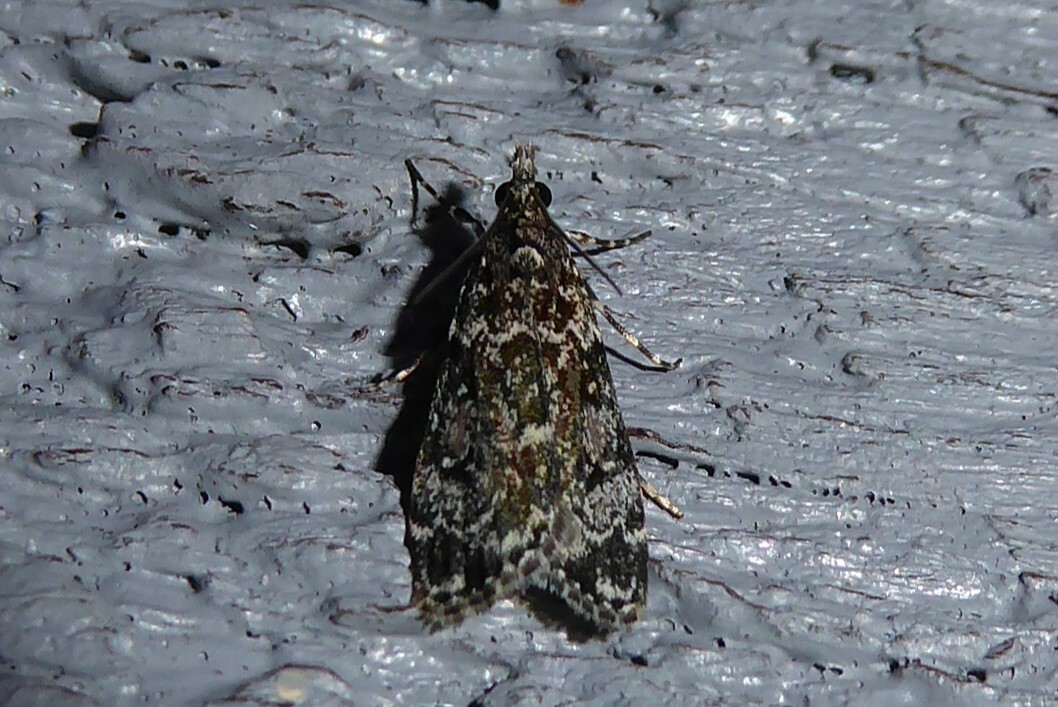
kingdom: Animalia
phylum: Arthropoda
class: Insecta
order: Lepidoptera
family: Crambidae
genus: Eudonia
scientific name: Eudonia philerga
